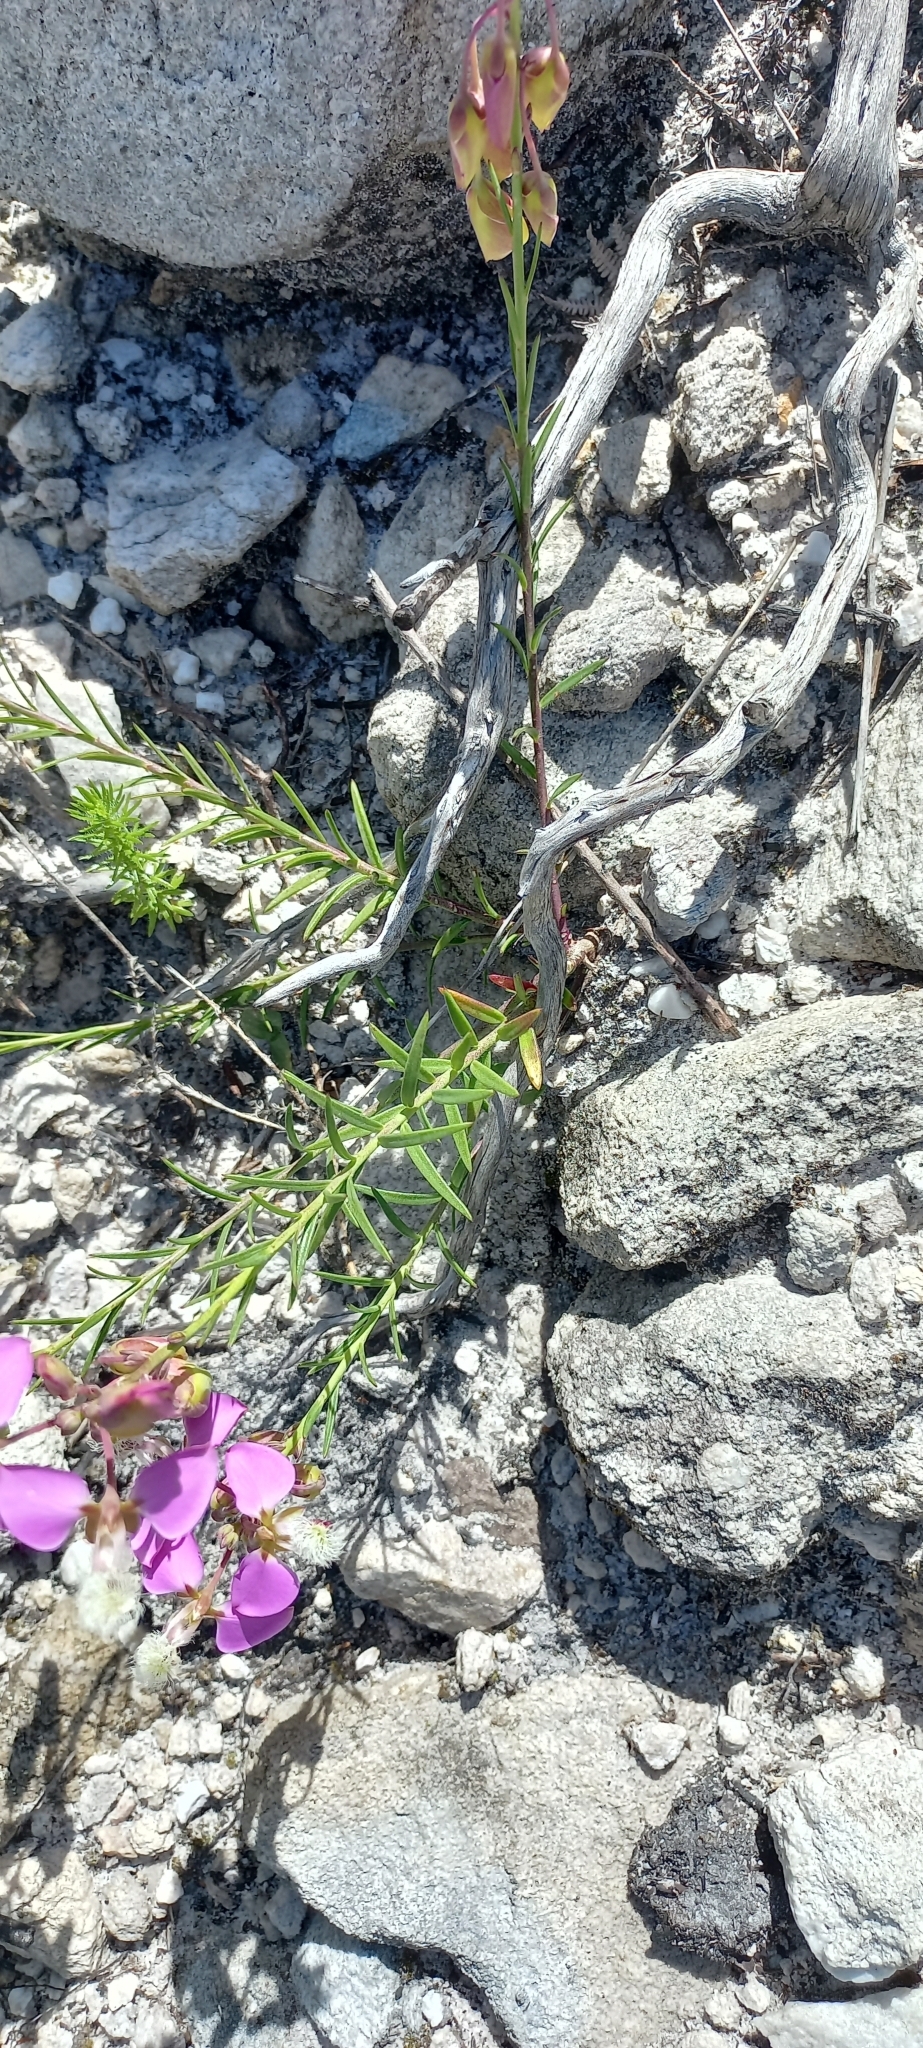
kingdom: Plantae
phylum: Tracheophyta
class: Magnoliopsida
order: Fabales
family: Polygalaceae
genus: Polygala
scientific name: Polygala bracteolata
